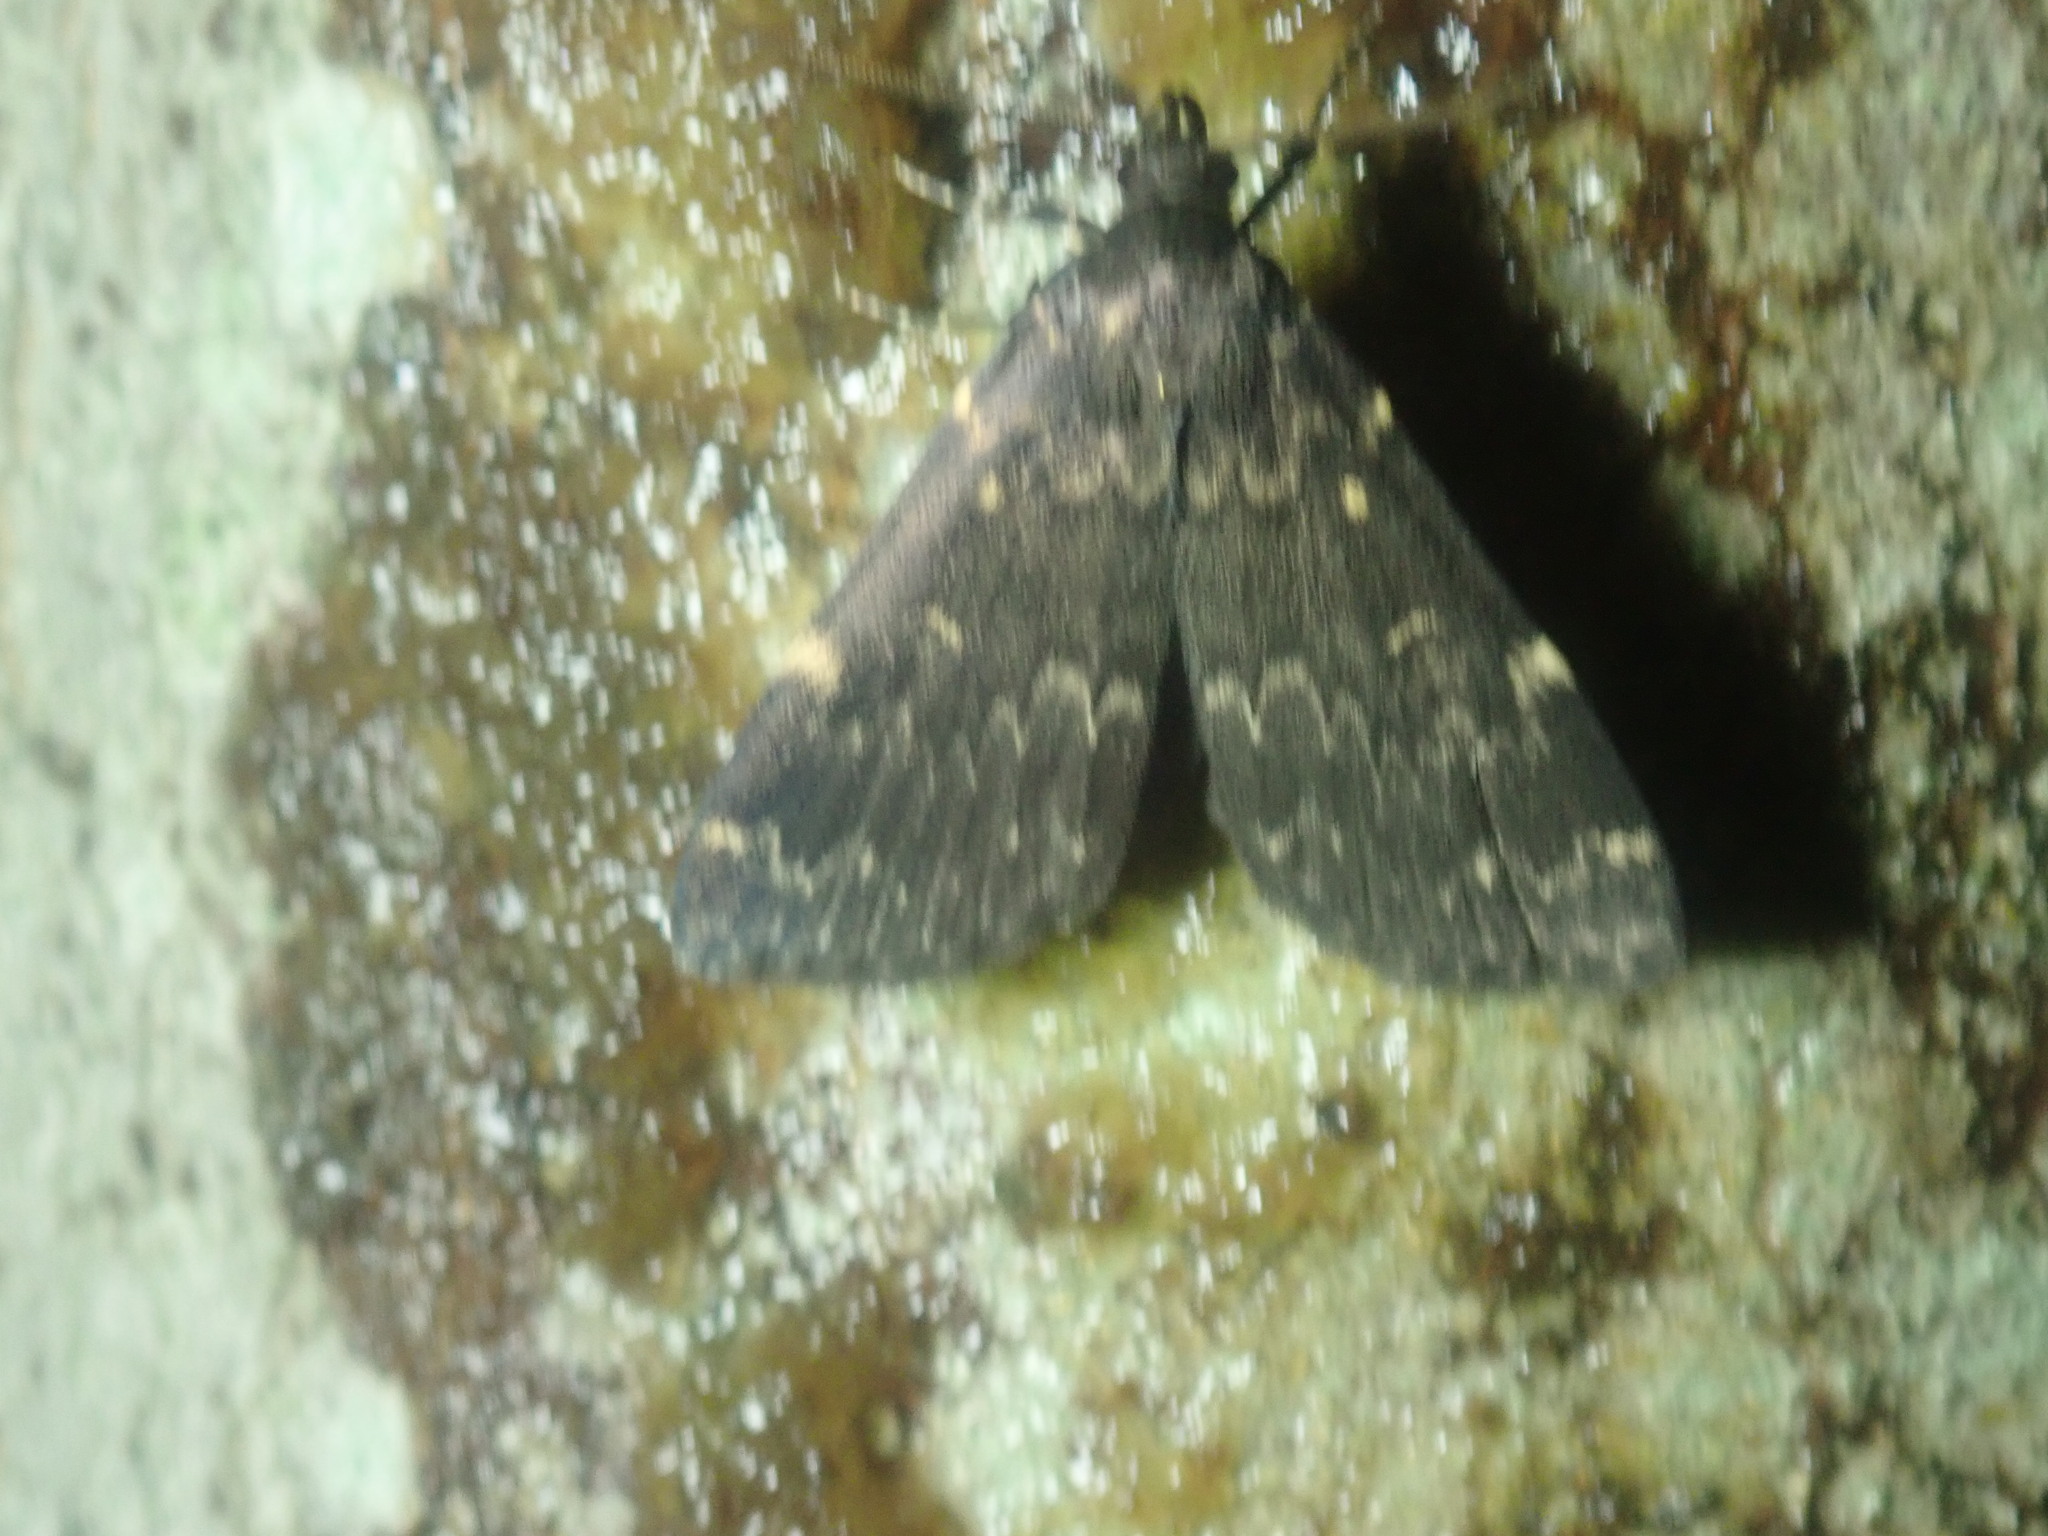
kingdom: Animalia
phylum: Arthropoda
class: Insecta
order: Lepidoptera
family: Erebidae
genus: Idia
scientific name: Idia lubricalis
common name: Twin-striped tabby
